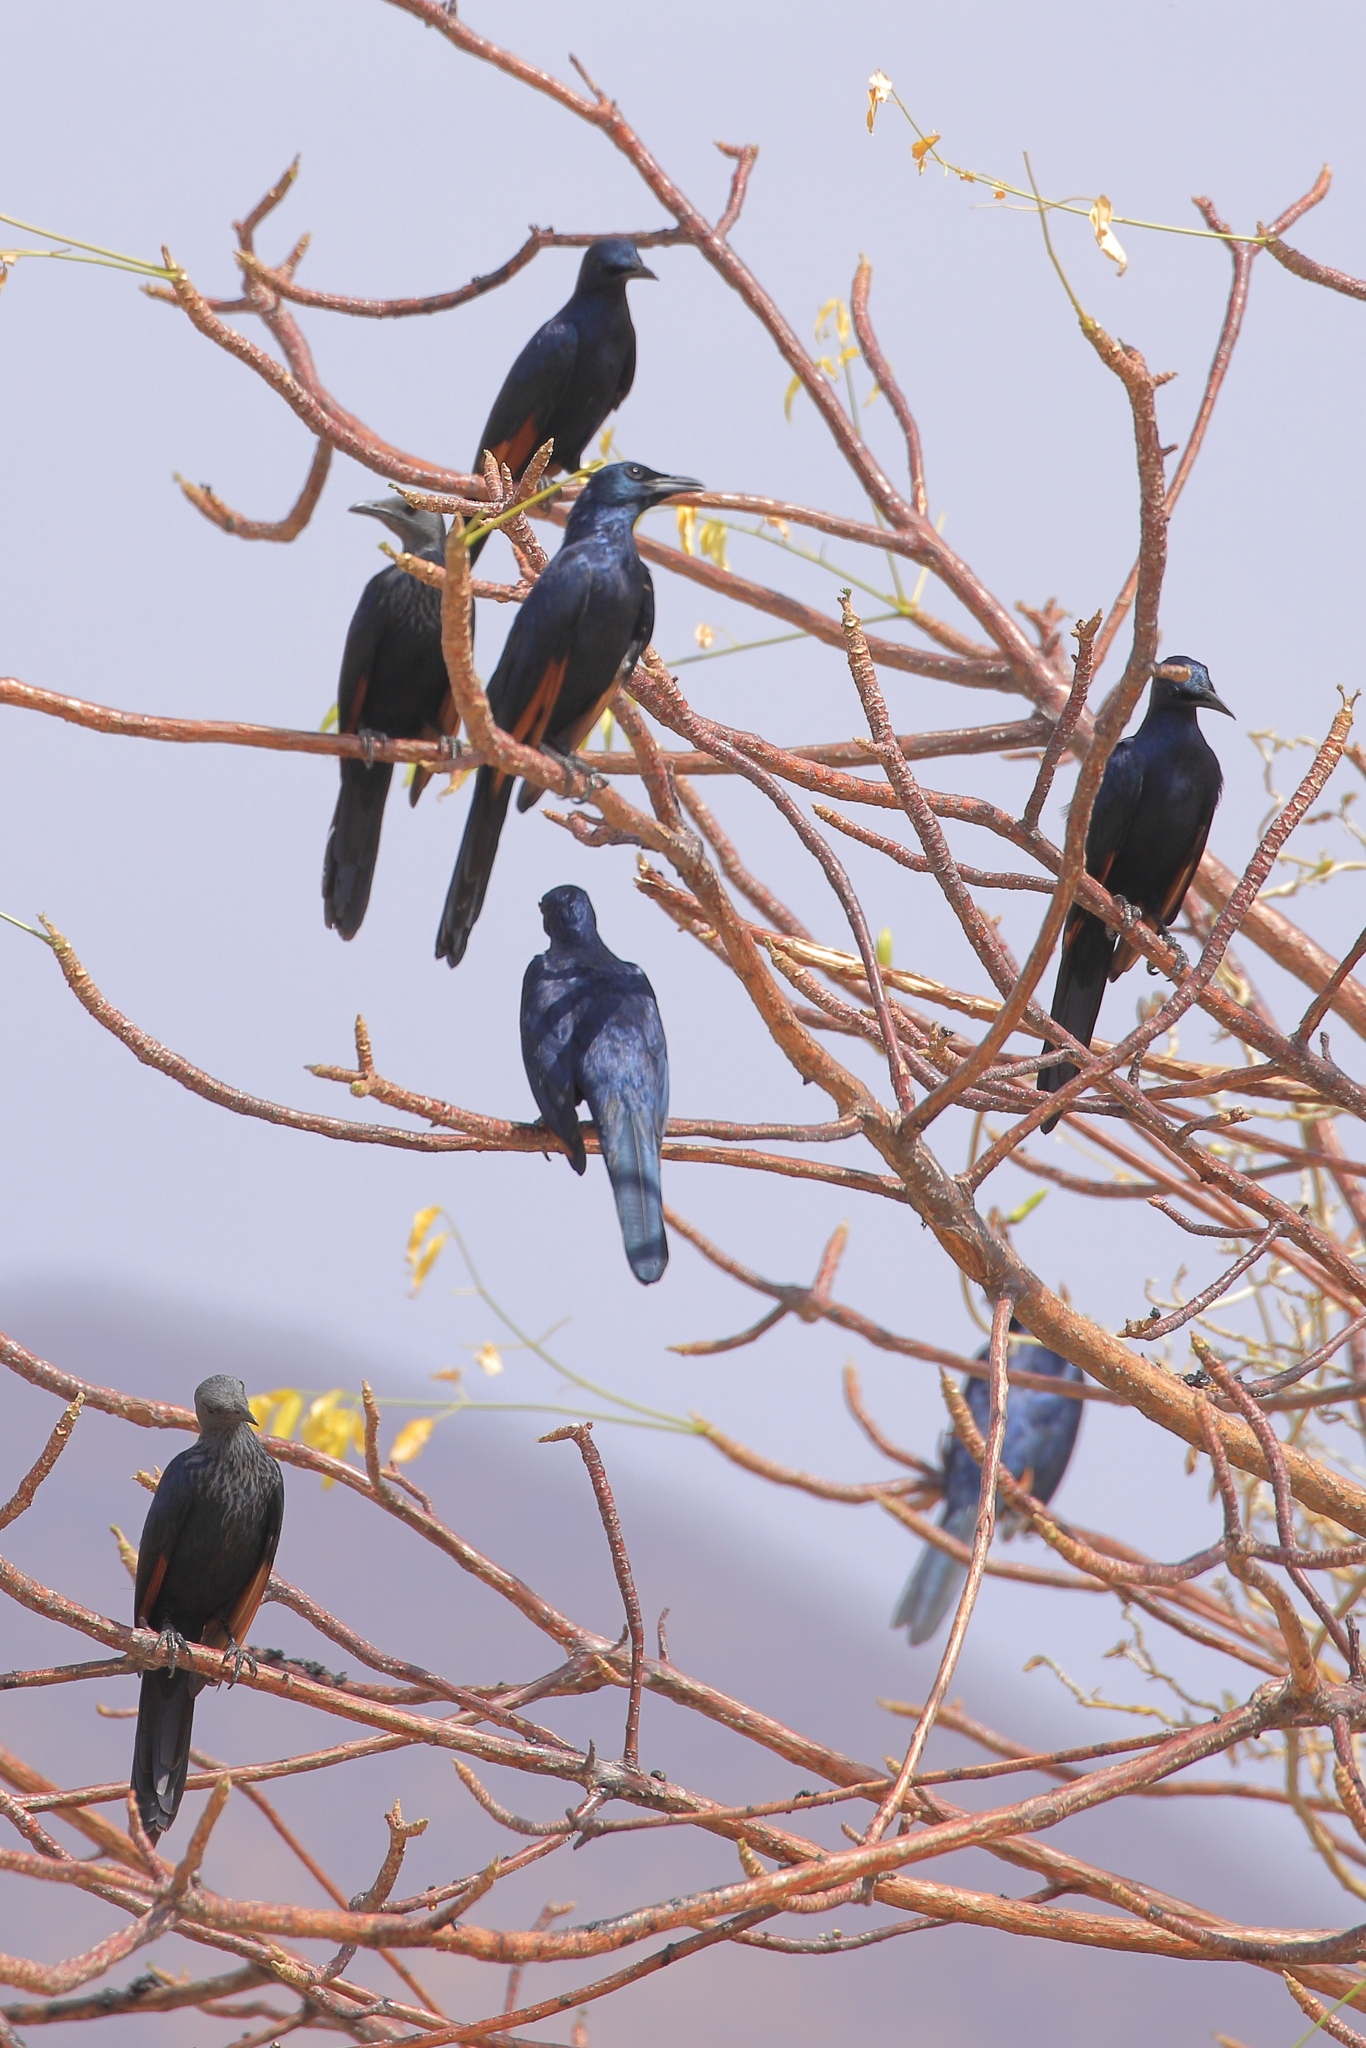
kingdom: Animalia
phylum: Chordata
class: Aves
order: Passeriformes
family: Sturnidae
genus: Onychognathus
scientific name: Onychognathus morio
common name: Red-winged starling
